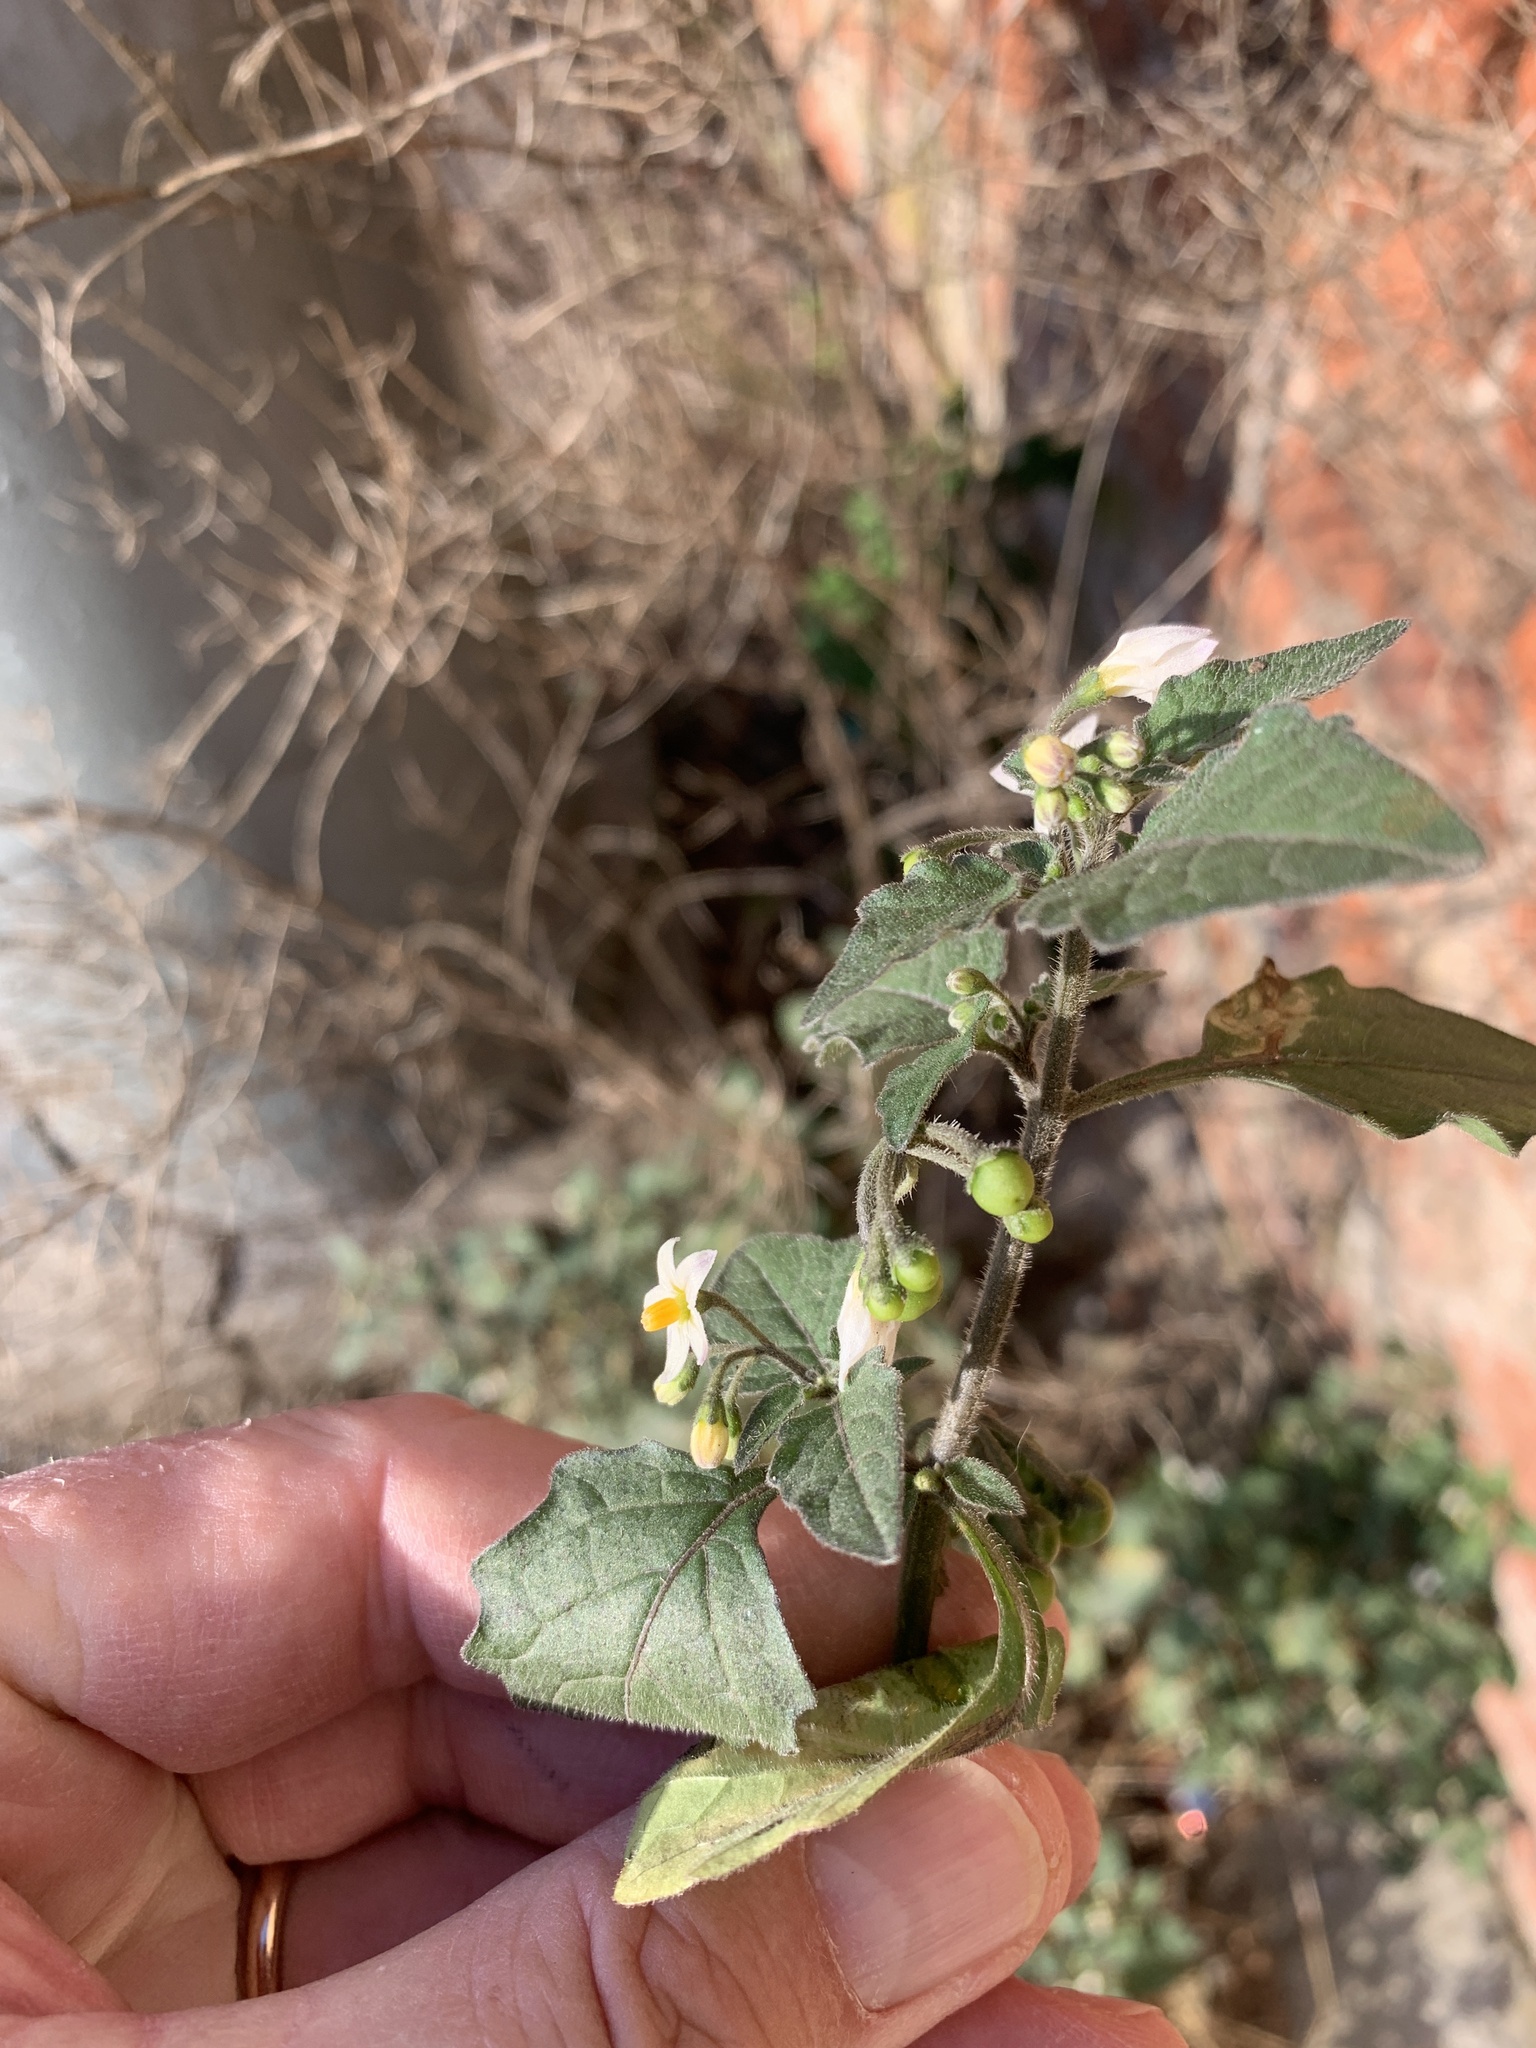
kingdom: Plantae
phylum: Tracheophyta
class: Magnoliopsida
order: Solanales
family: Solanaceae
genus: Solanum
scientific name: Solanum nigrum
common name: Black nightshade
